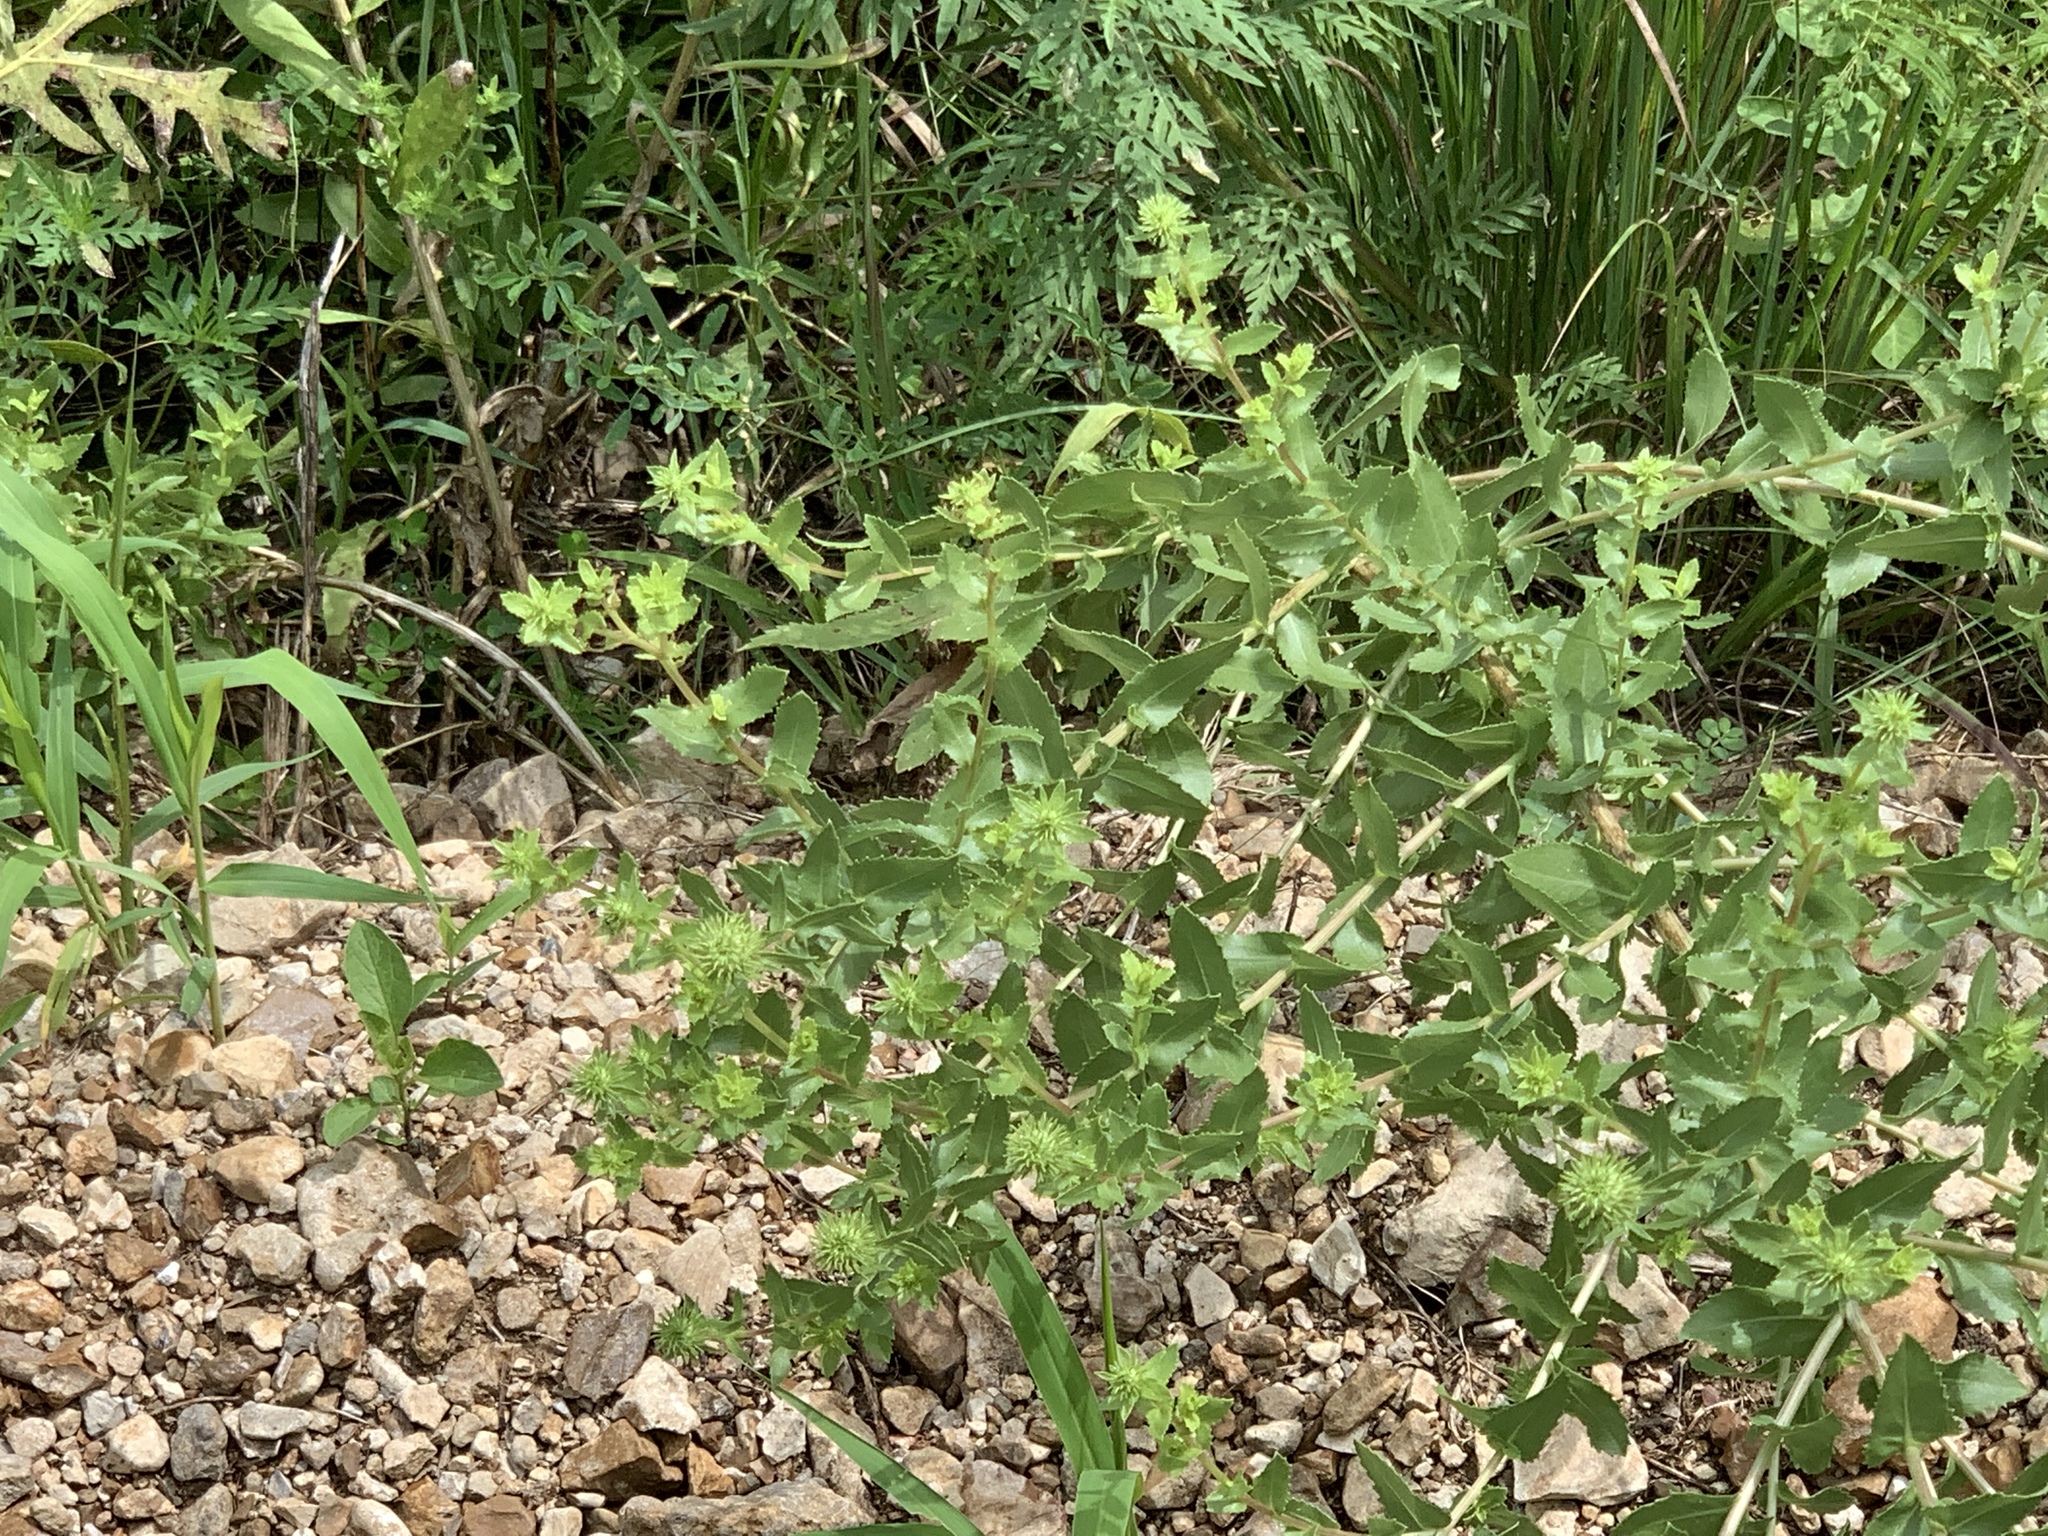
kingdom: Plantae
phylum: Tracheophyta
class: Magnoliopsida
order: Asterales
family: Asteraceae
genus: Grindelia
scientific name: Grindelia squarrosa
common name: Curly-cup gumweed
